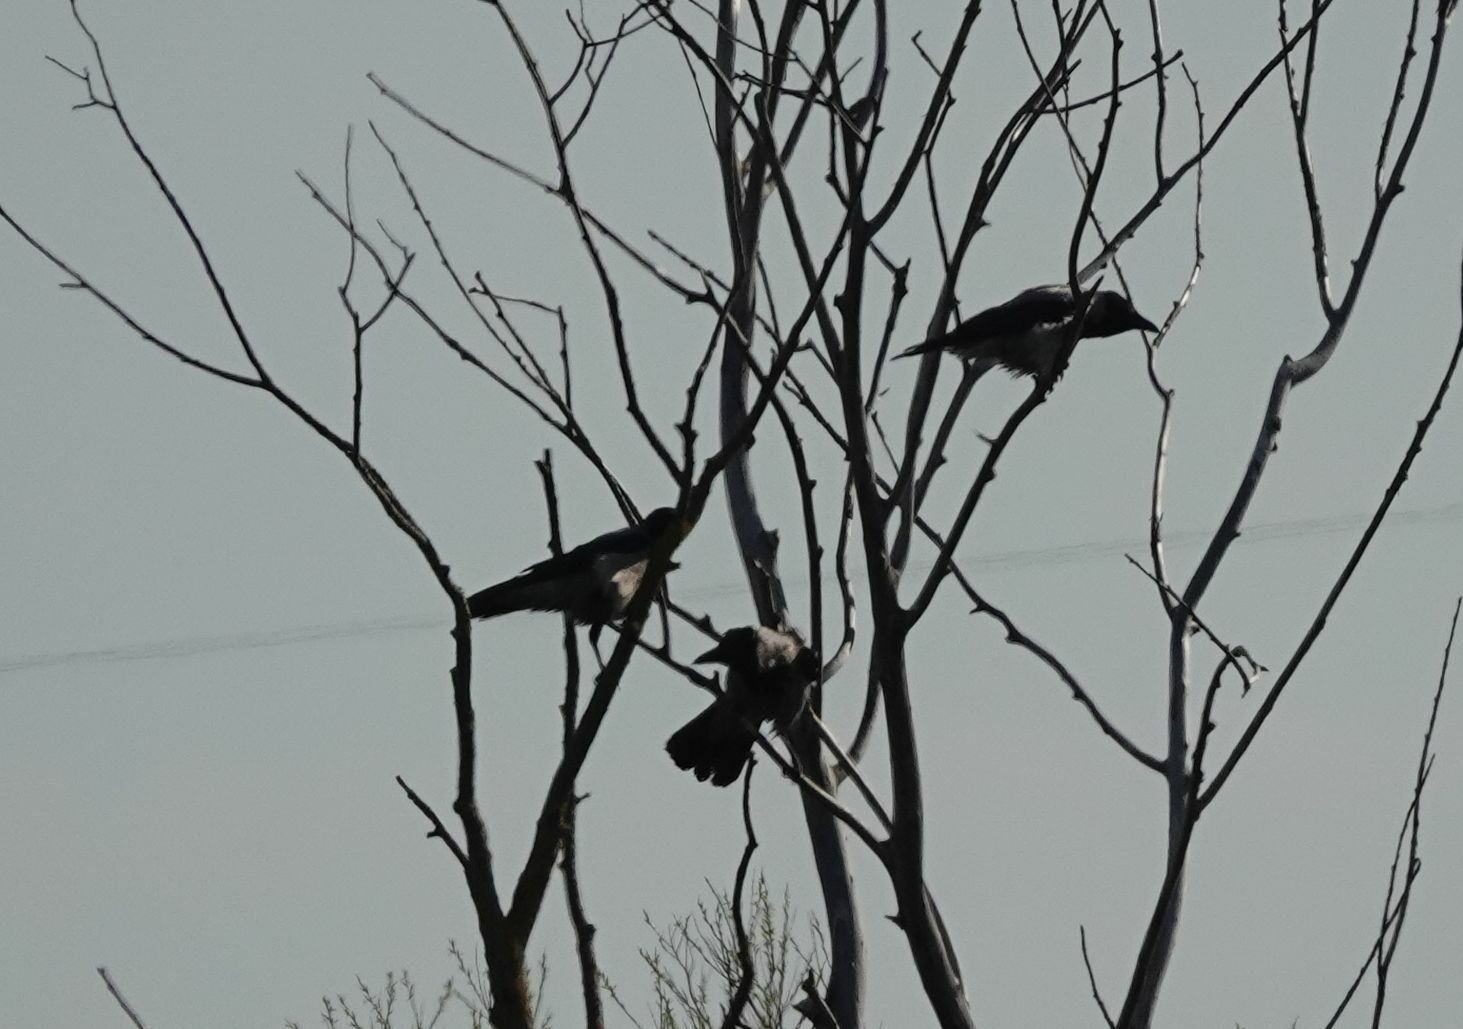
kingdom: Animalia
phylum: Chordata
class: Aves
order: Passeriformes
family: Corvidae
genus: Corvus
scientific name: Corvus cornix
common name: Hooded crow
